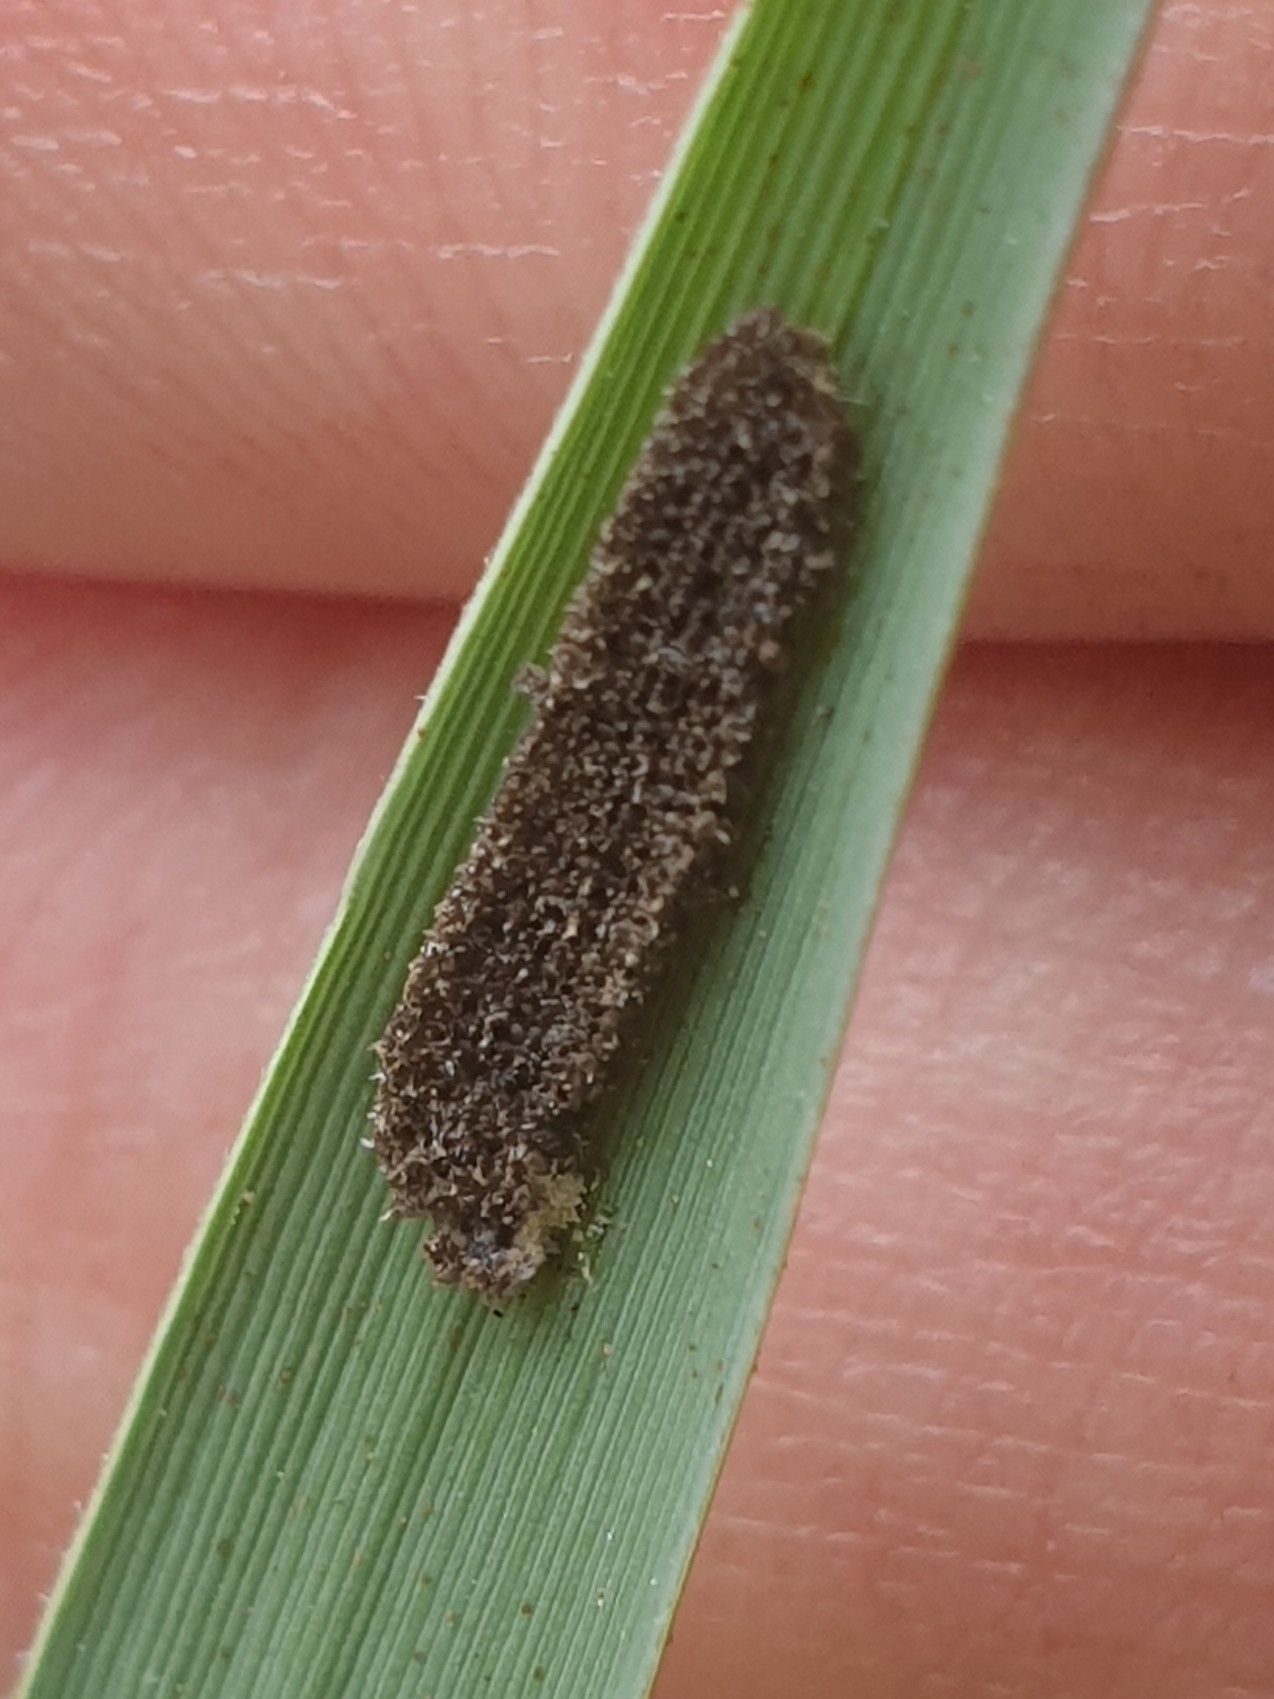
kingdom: Animalia
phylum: Arthropoda
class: Insecta
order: Megaloptera
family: Sialidae
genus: Sialis
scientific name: Sialis
